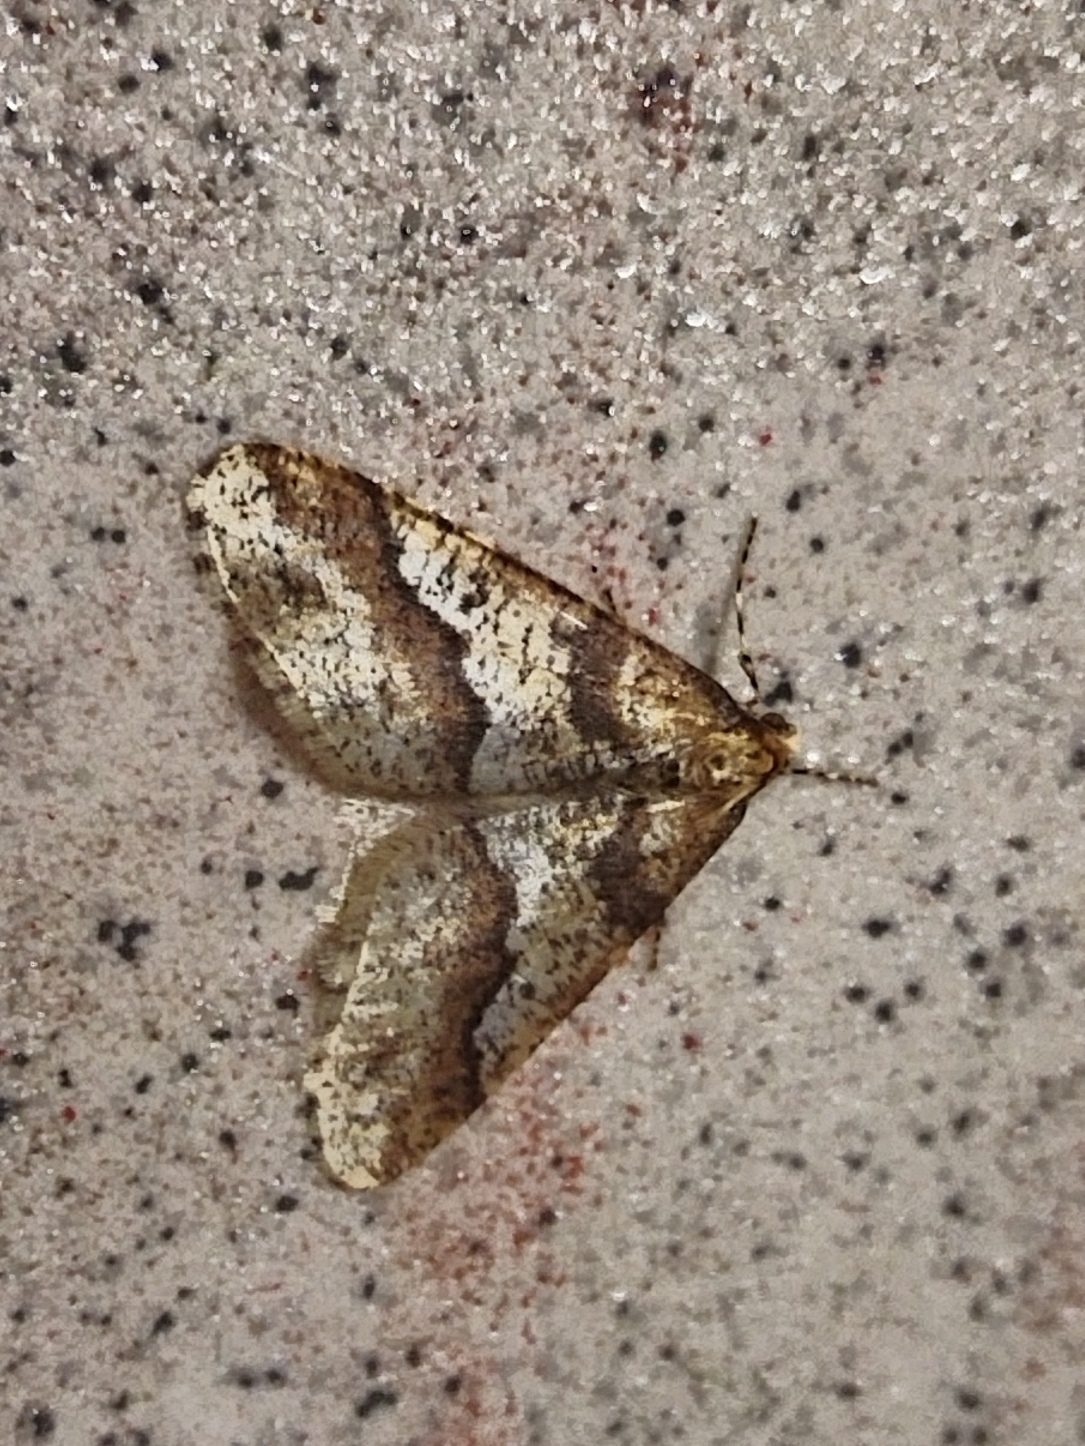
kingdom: Animalia
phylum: Arthropoda
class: Insecta
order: Lepidoptera
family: Geometridae
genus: Erannis
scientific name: Erannis defoliaria
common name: Mottled umber
